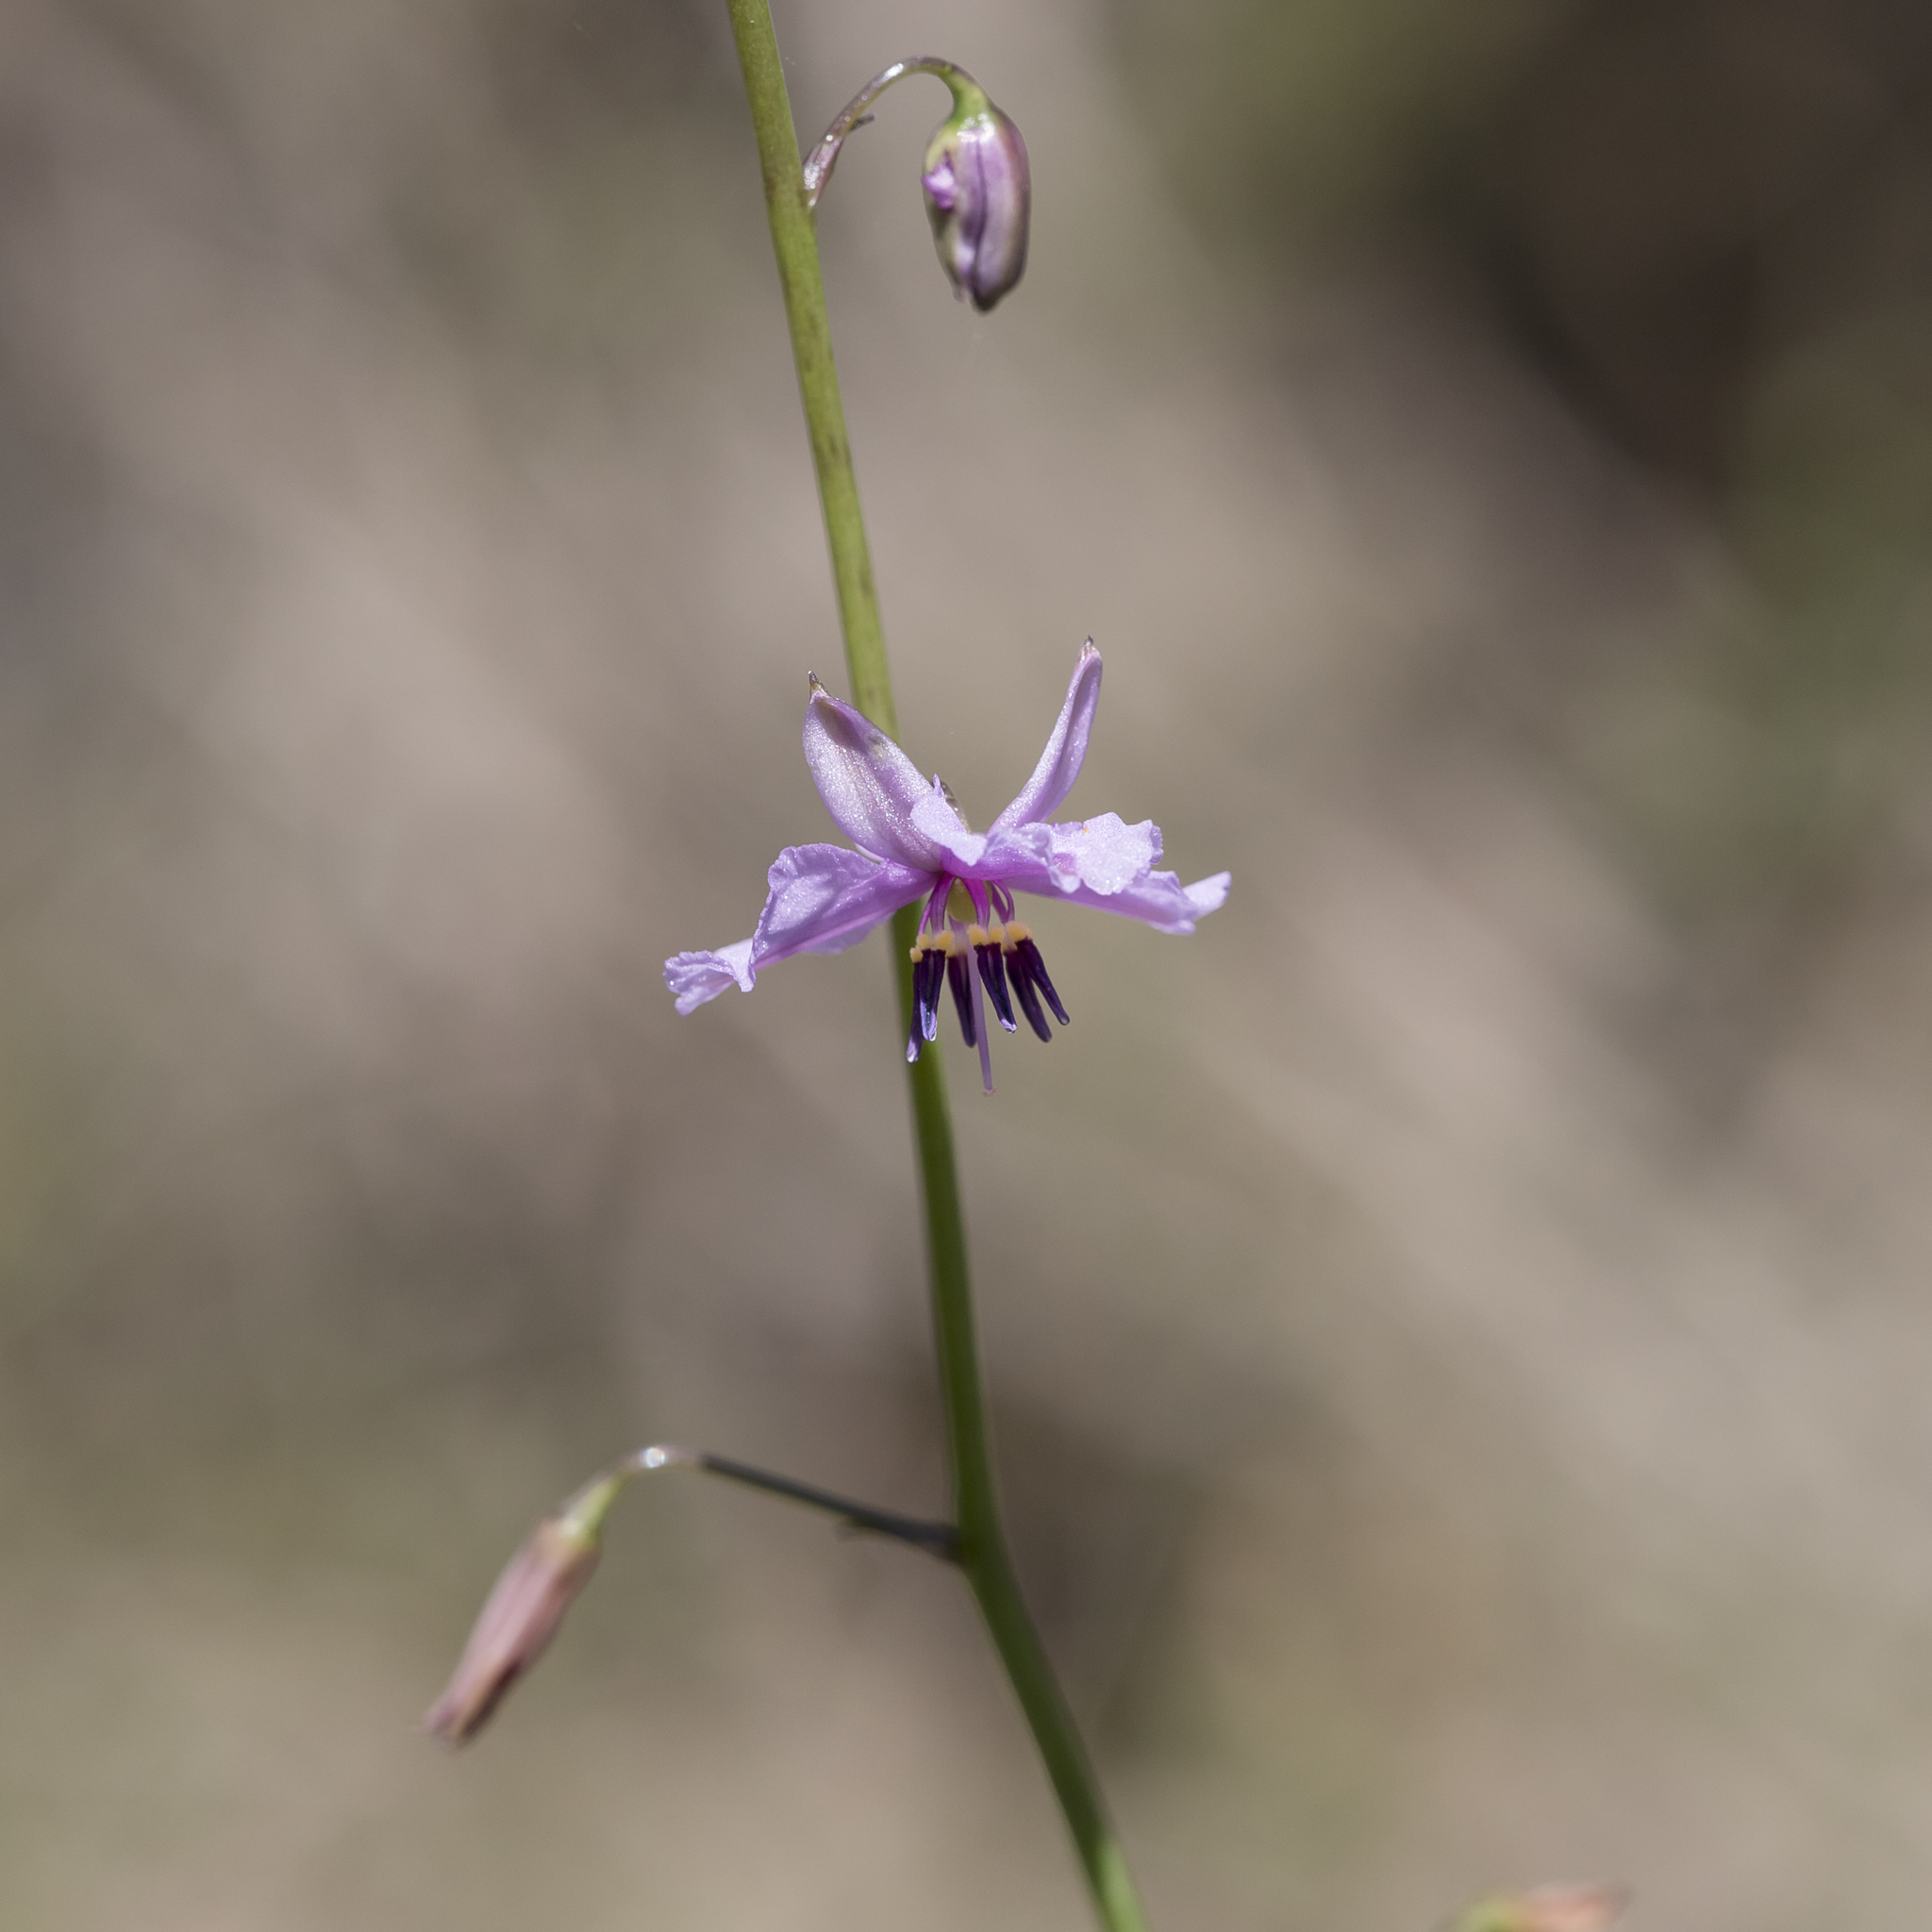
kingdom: Plantae
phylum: Tracheophyta
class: Liliopsida
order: Asparagales
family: Asparagaceae
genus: Arthropodium
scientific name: Arthropodium strictum
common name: Chocolate-lily
